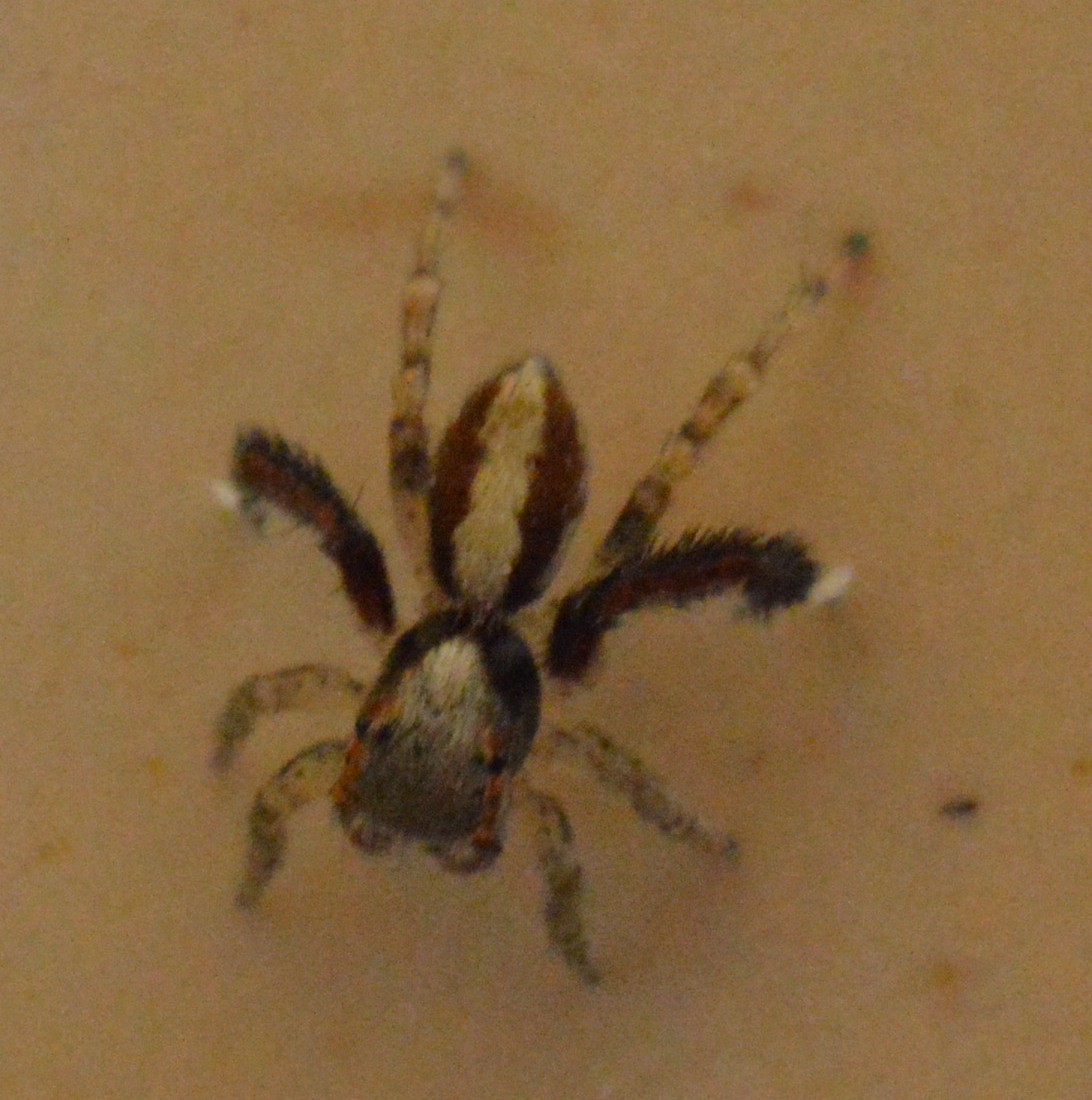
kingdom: Animalia
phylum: Arthropoda
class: Arachnida
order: Araneae
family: Salticidae
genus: Saitis
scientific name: Saitis barbipes
